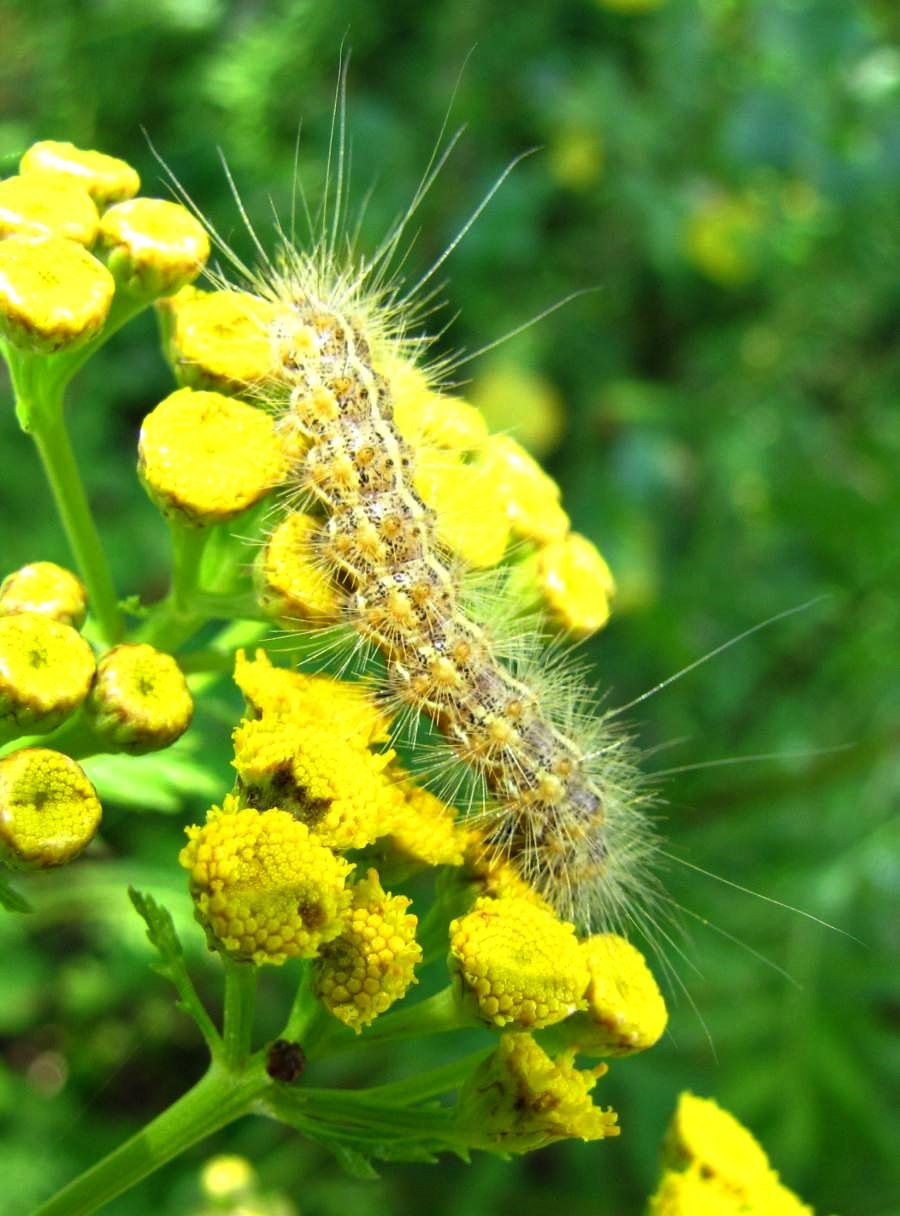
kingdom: Animalia
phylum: Arthropoda
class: Insecta
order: Lepidoptera
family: Erebidae
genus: Estigmene
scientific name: Estigmene acrea
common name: Salt marsh moth
